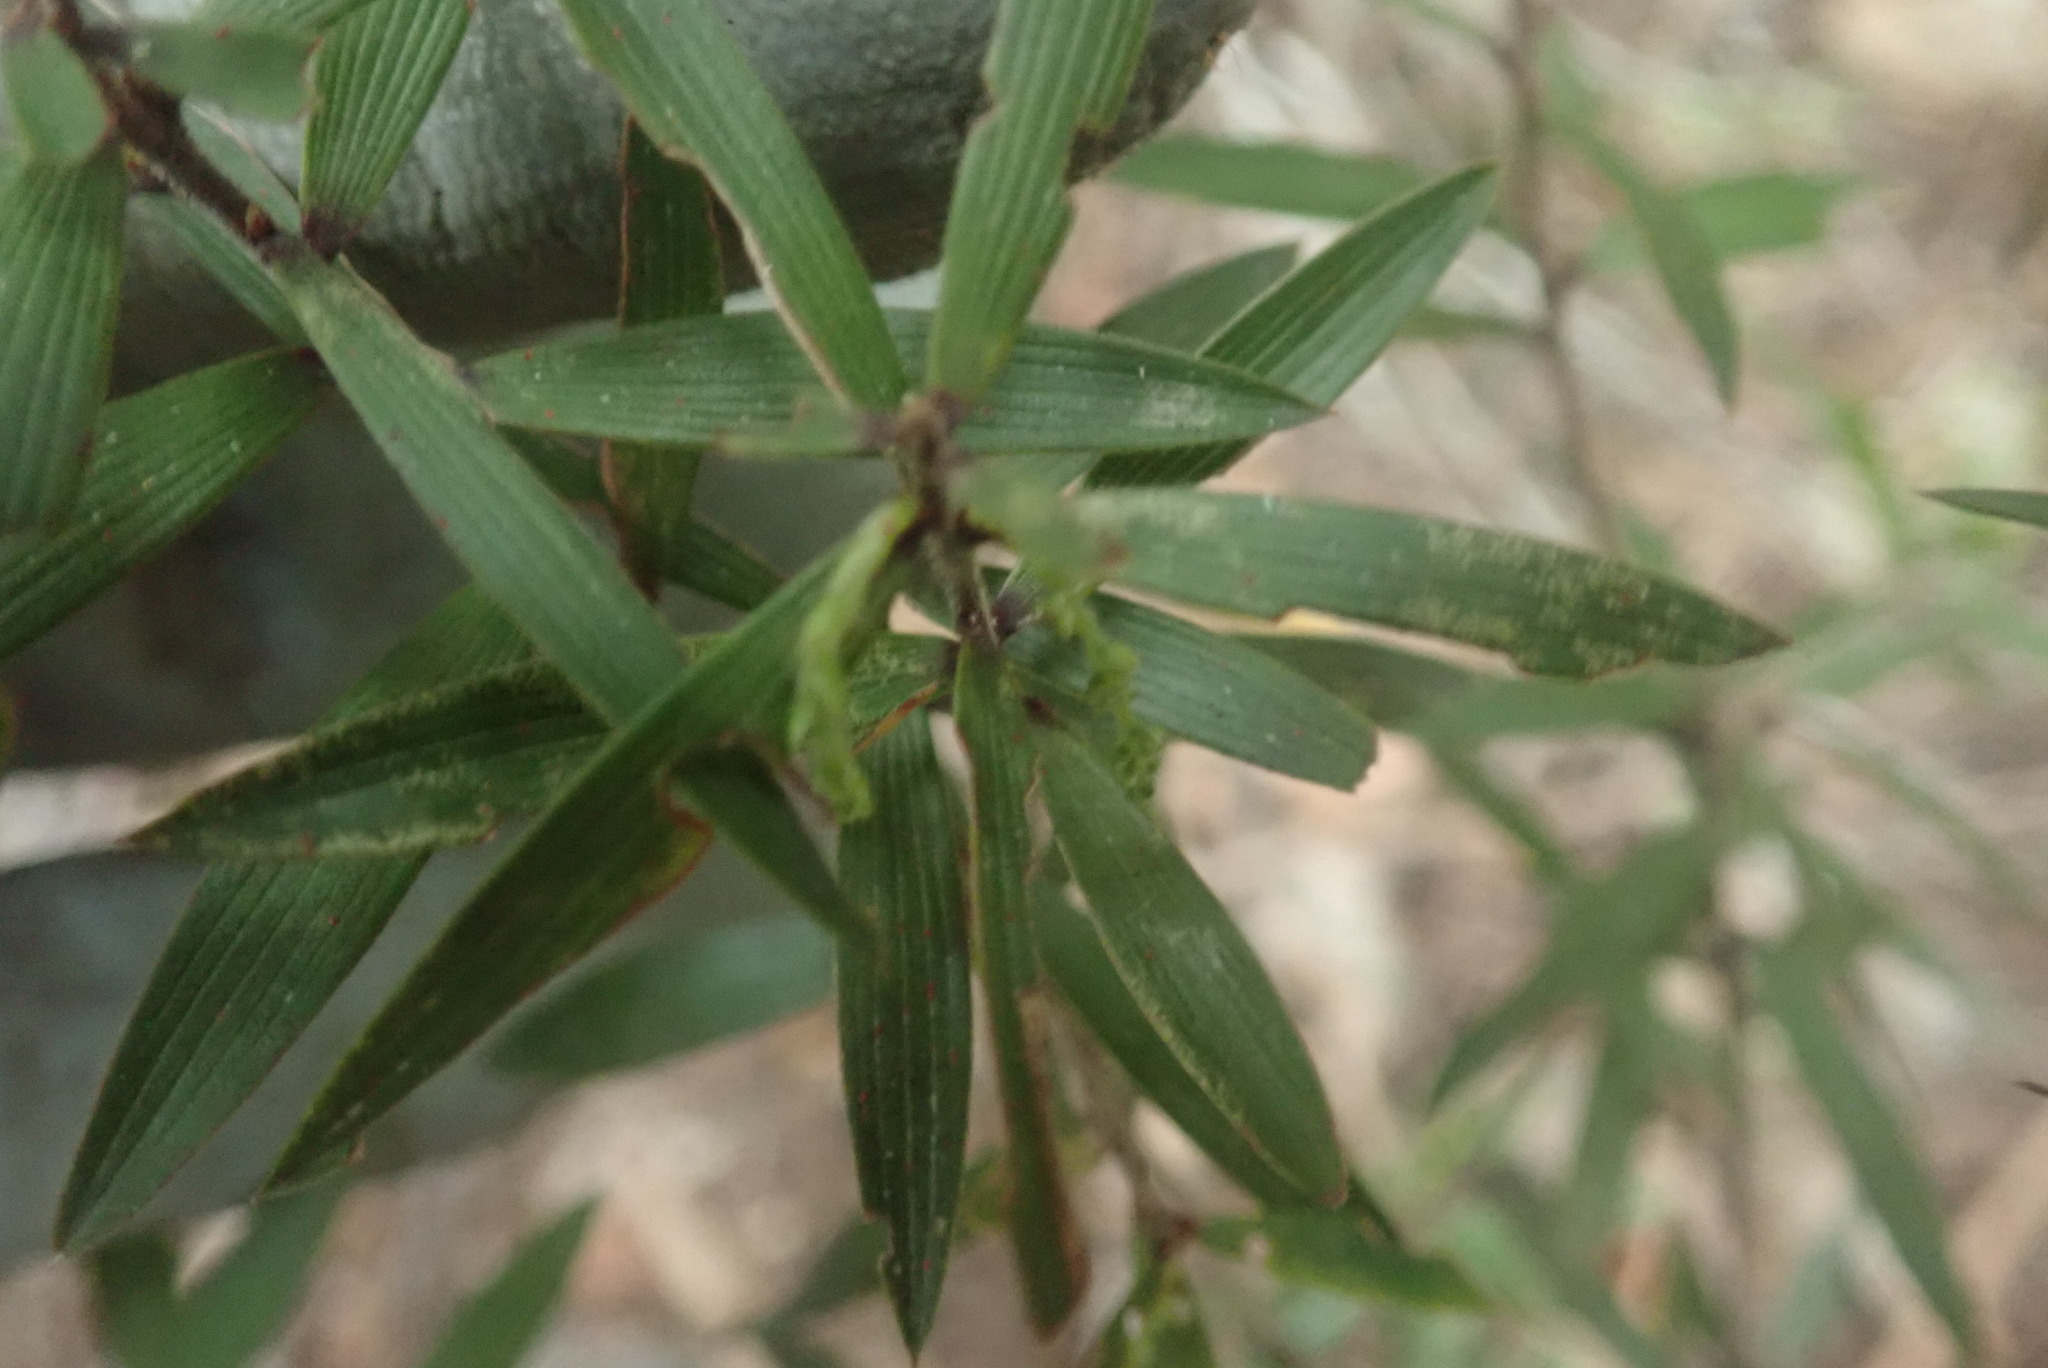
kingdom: Plantae
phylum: Tracheophyta
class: Magnoliopsida
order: Ericales
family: Ericaceae
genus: Leucopogon
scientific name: Leucopogon fasciculatus
